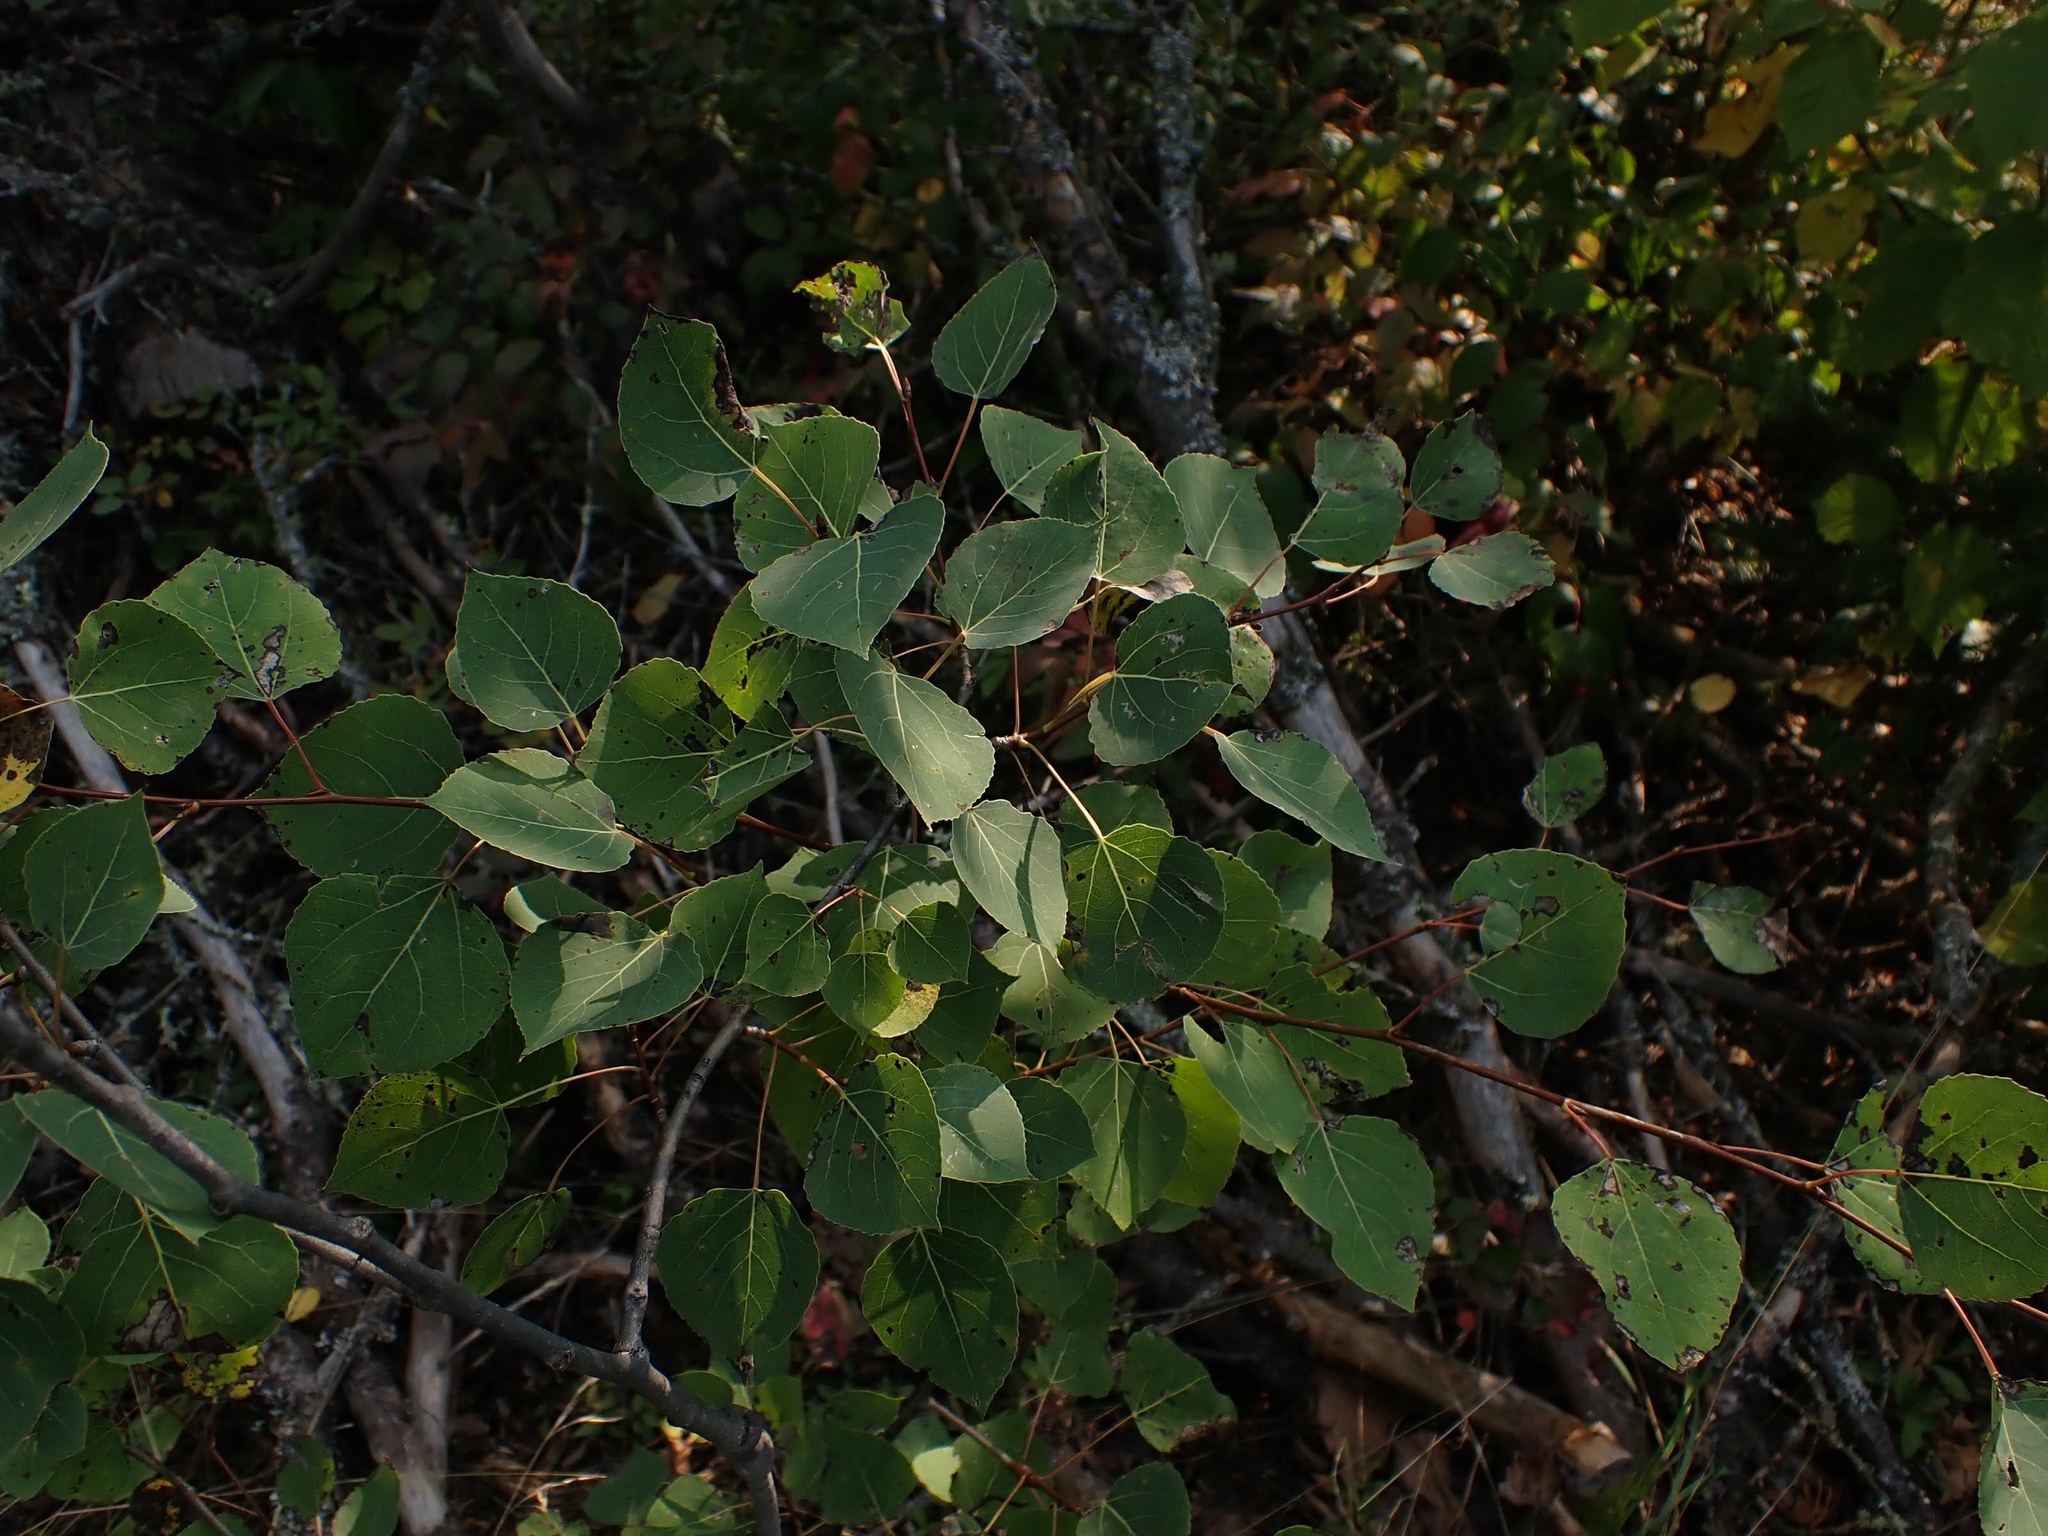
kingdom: Plantae
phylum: Tracheophyta
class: Magnoliopsida
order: Malpighiales
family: Salicaceae
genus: Populus
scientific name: Populus tremuloides
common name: Quaking aspen
